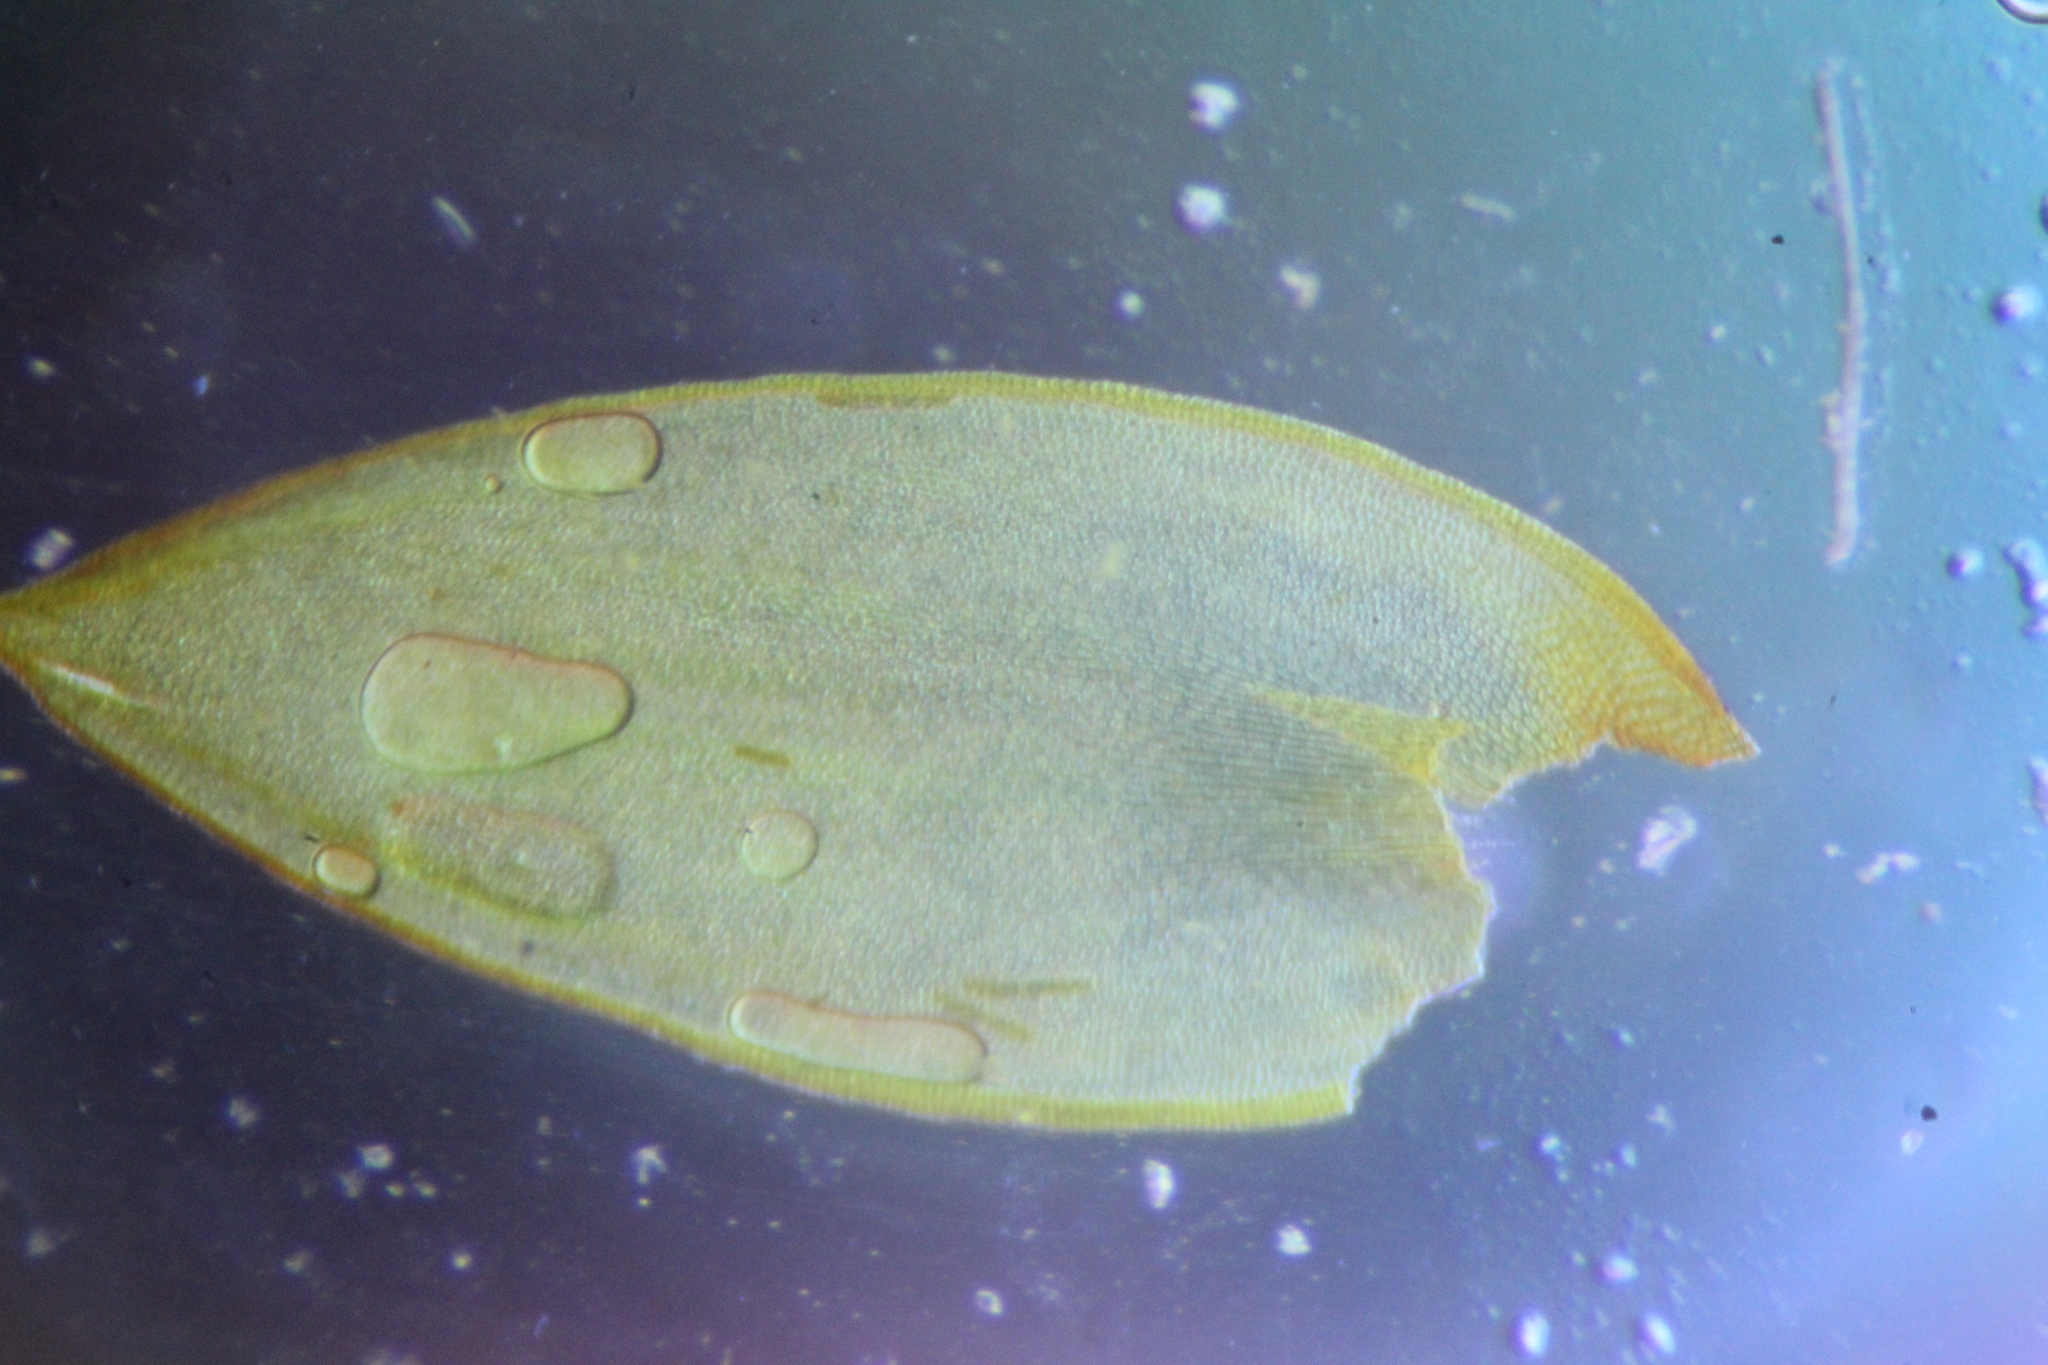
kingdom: Plantae
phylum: Bryophyta
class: Bryopsida
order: Hedwigiales
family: Hedwigiaceae
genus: Hedwigidium
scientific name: Hedwigidium imberbe
